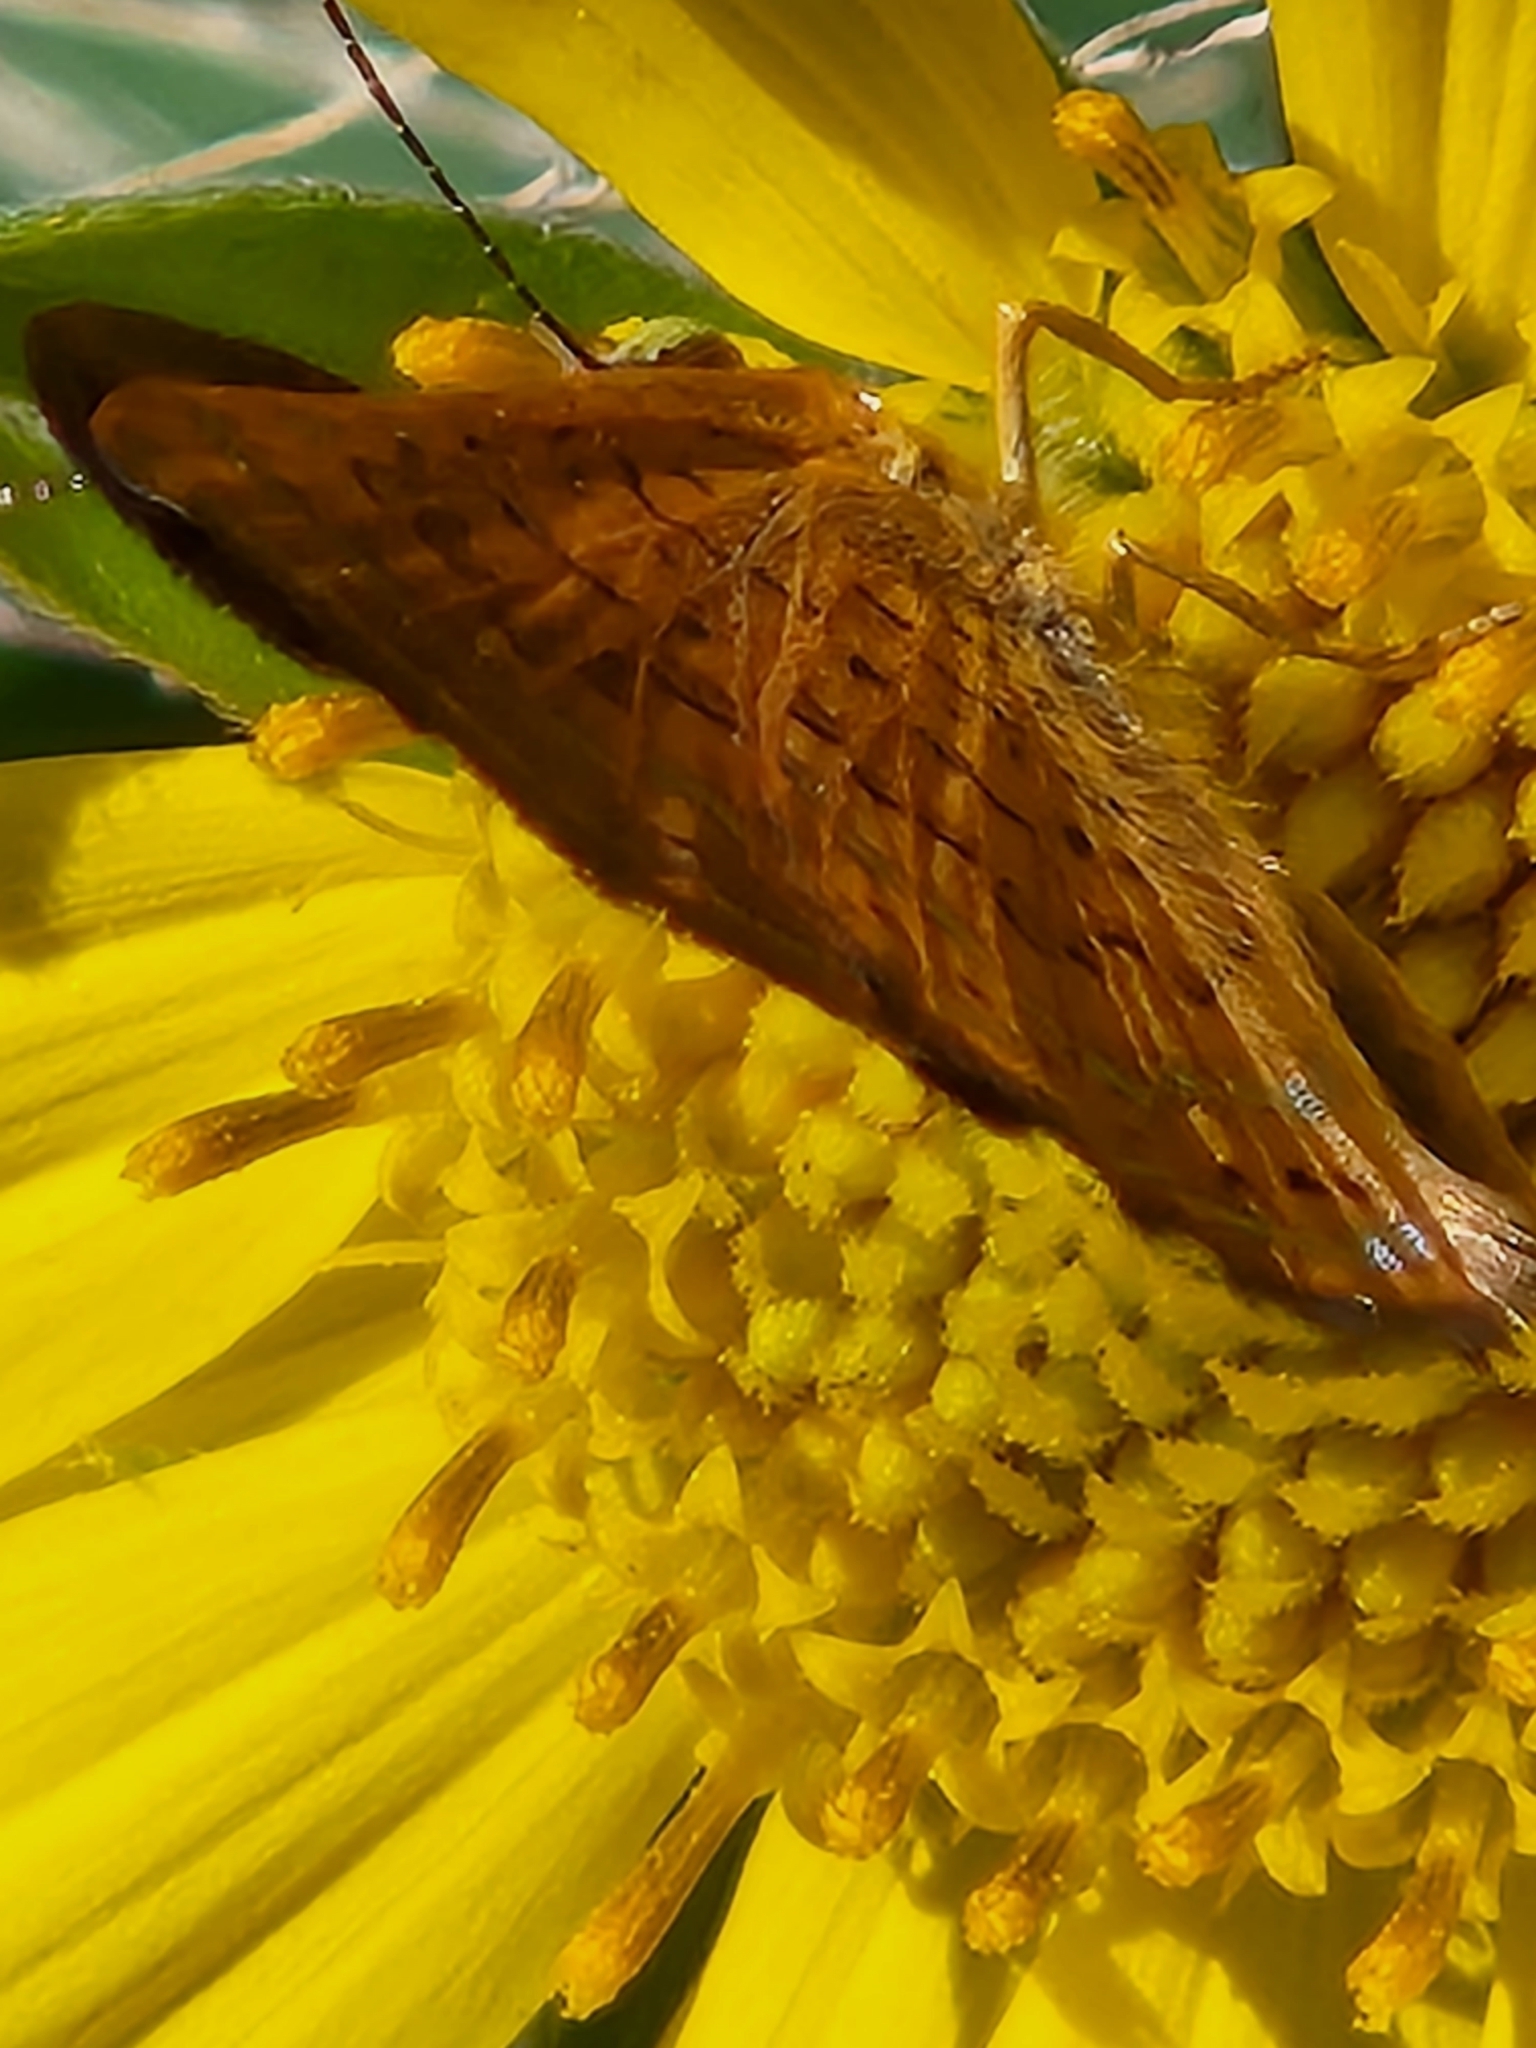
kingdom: Animalia
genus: Calephelis
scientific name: Calephelis nemesis
